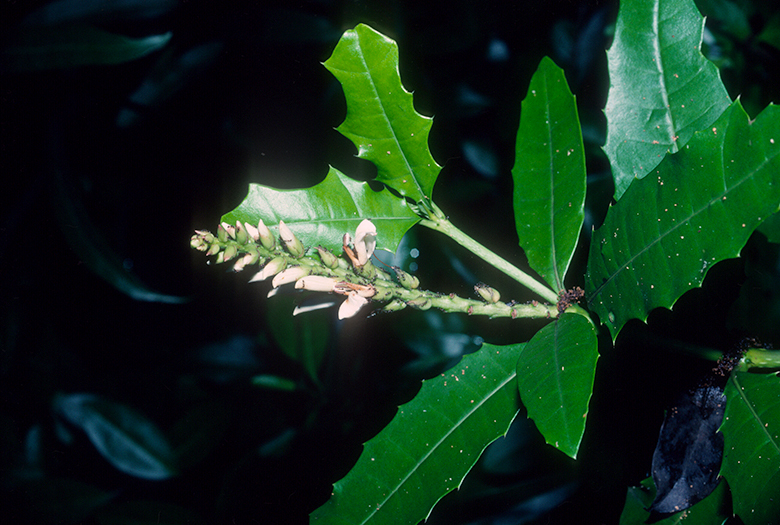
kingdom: Plantae
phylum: Tracheophyta
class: Magnoliopsida
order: Lamiales
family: Acanthaceae
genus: Acanthus
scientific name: Acanthus ilicifolius
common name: Holy mangrove
